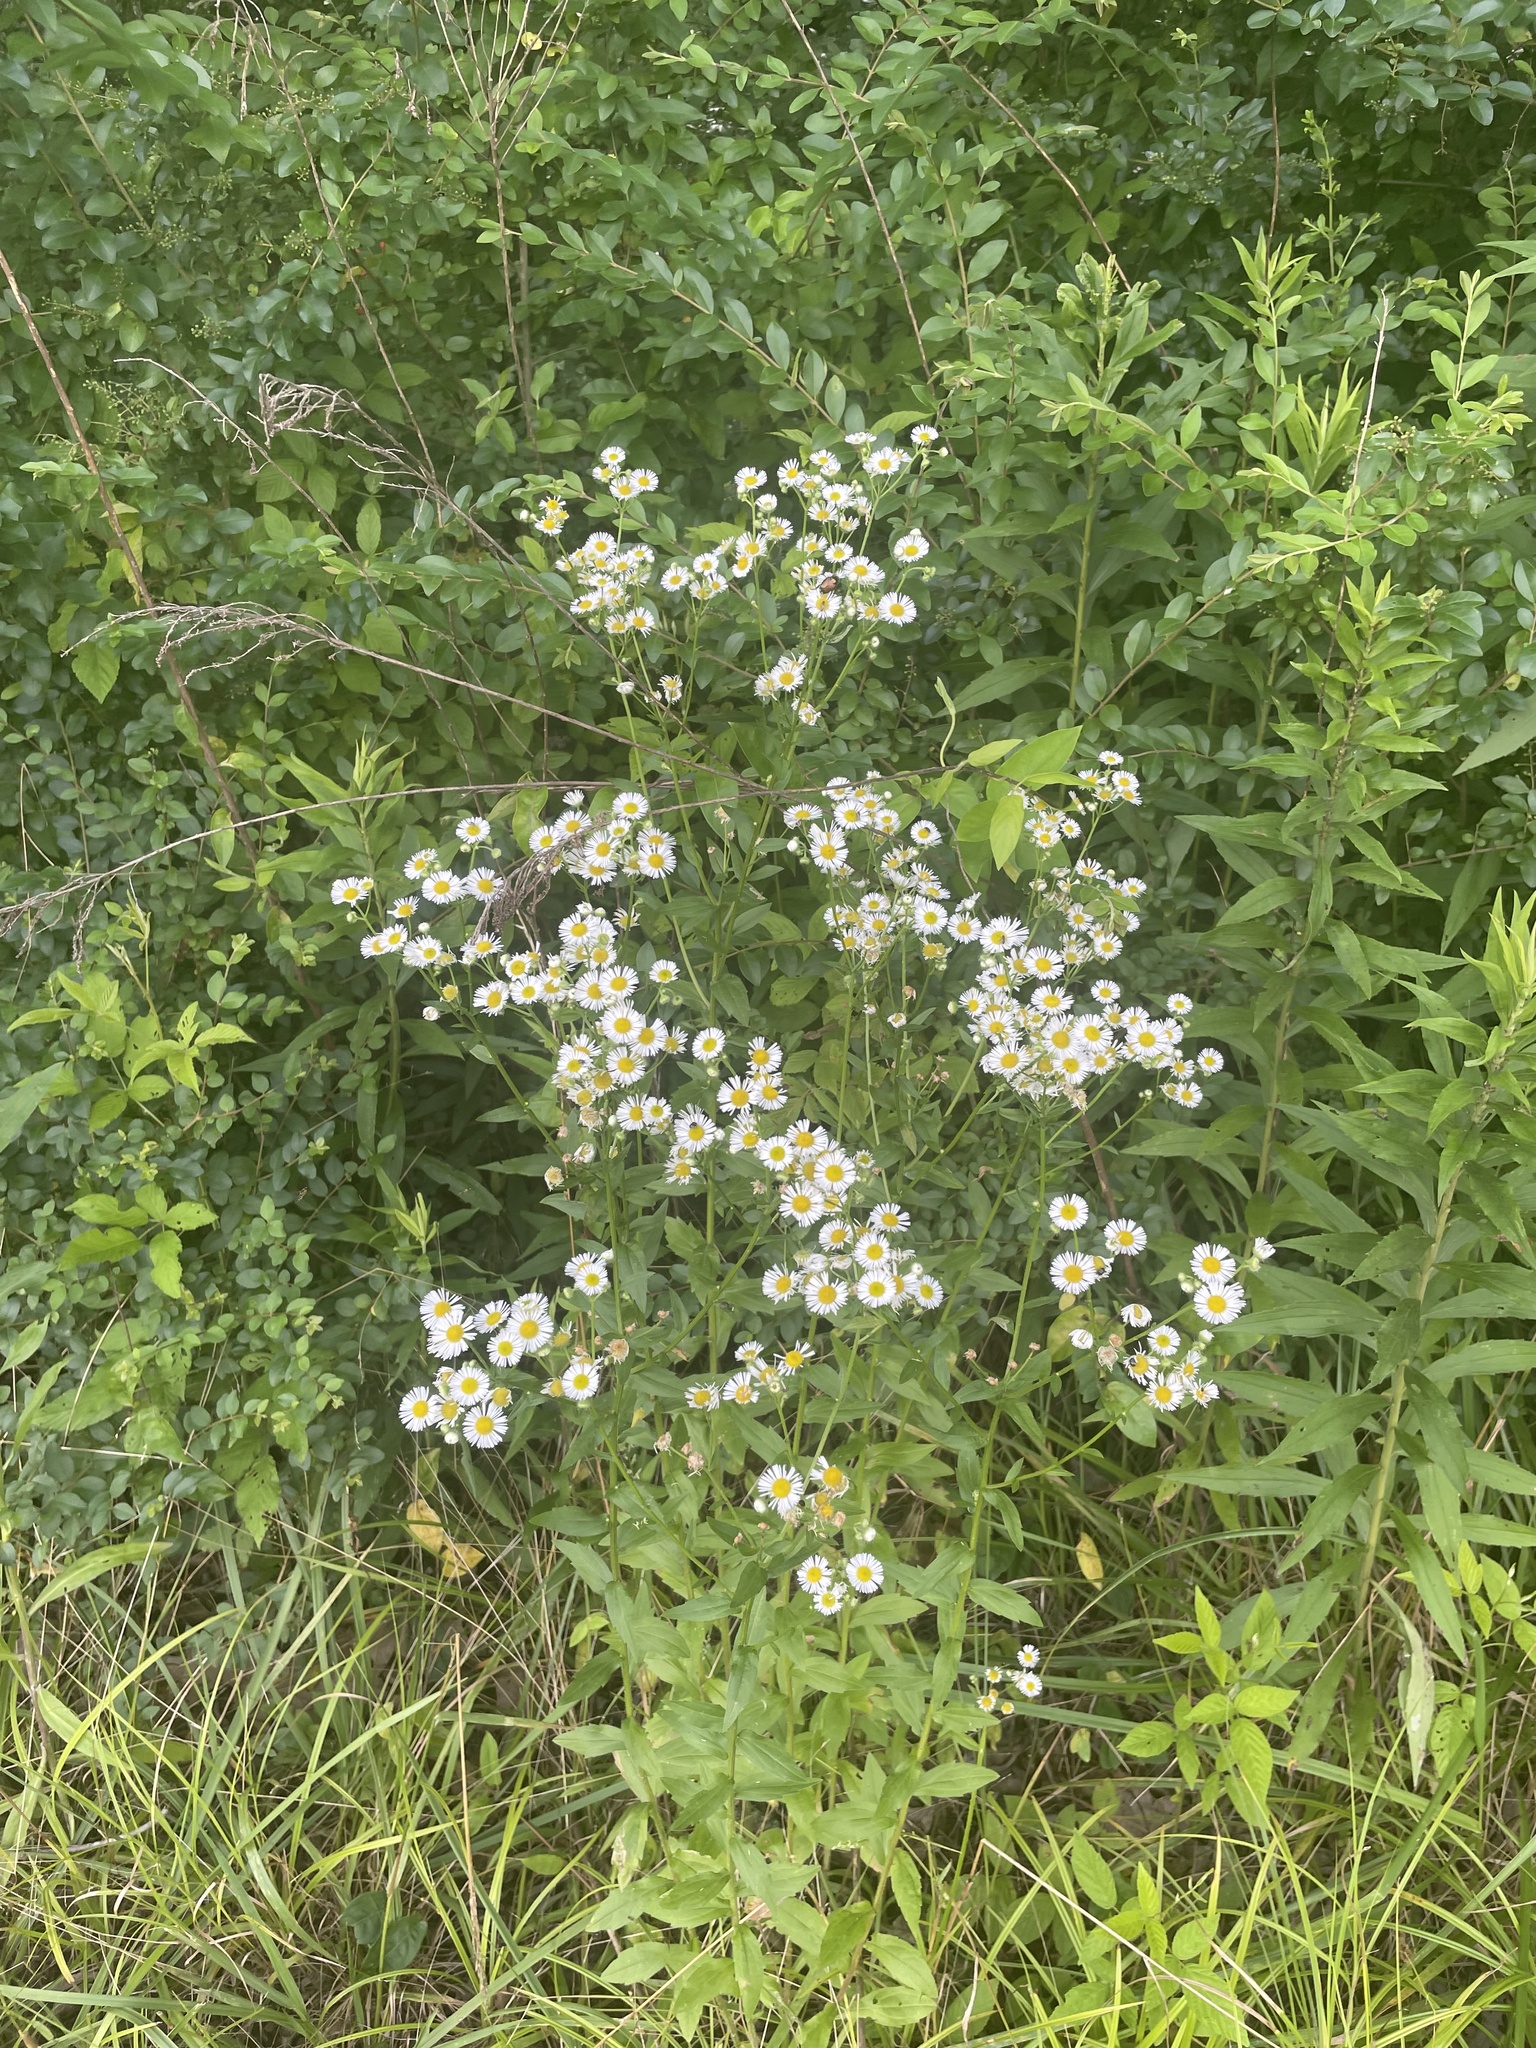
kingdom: Plantae
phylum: Tracheophyta
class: Magnoliopsida
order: Asterales
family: Asteraceae
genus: Erigeron
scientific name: Erigeron annuus
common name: Tall fleabane
